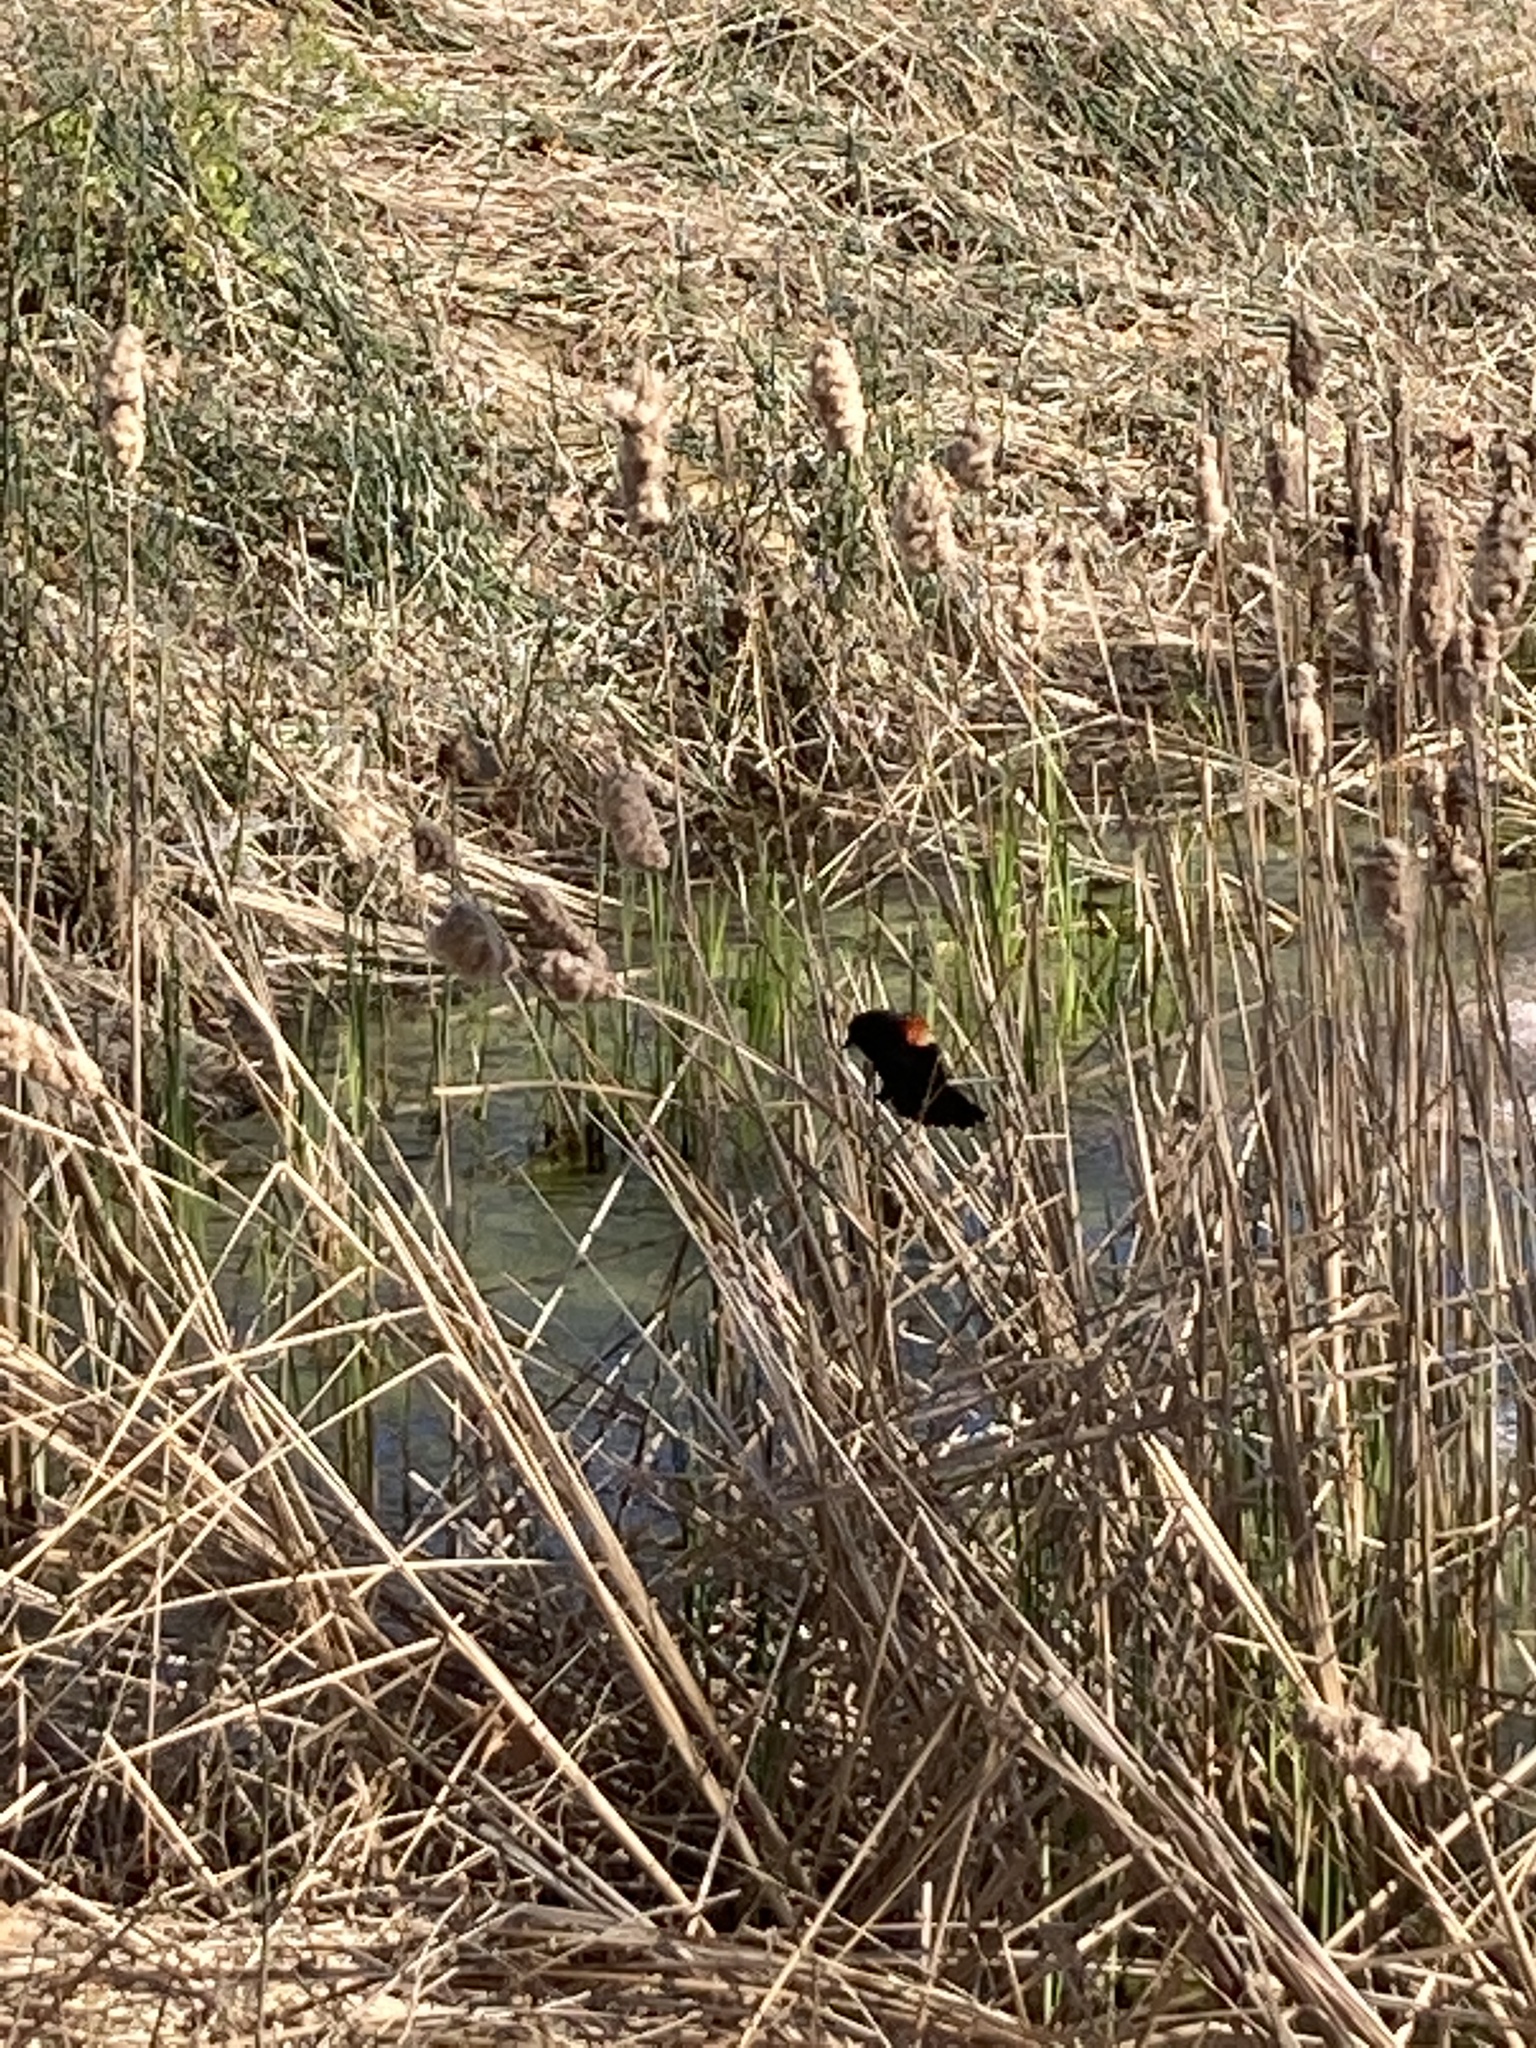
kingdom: Animalia
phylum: Chordata
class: Aves
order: Passeriformes
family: Icteridae
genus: Agelaius
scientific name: Agelaius phoeniceus
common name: Red-winged blackbird
